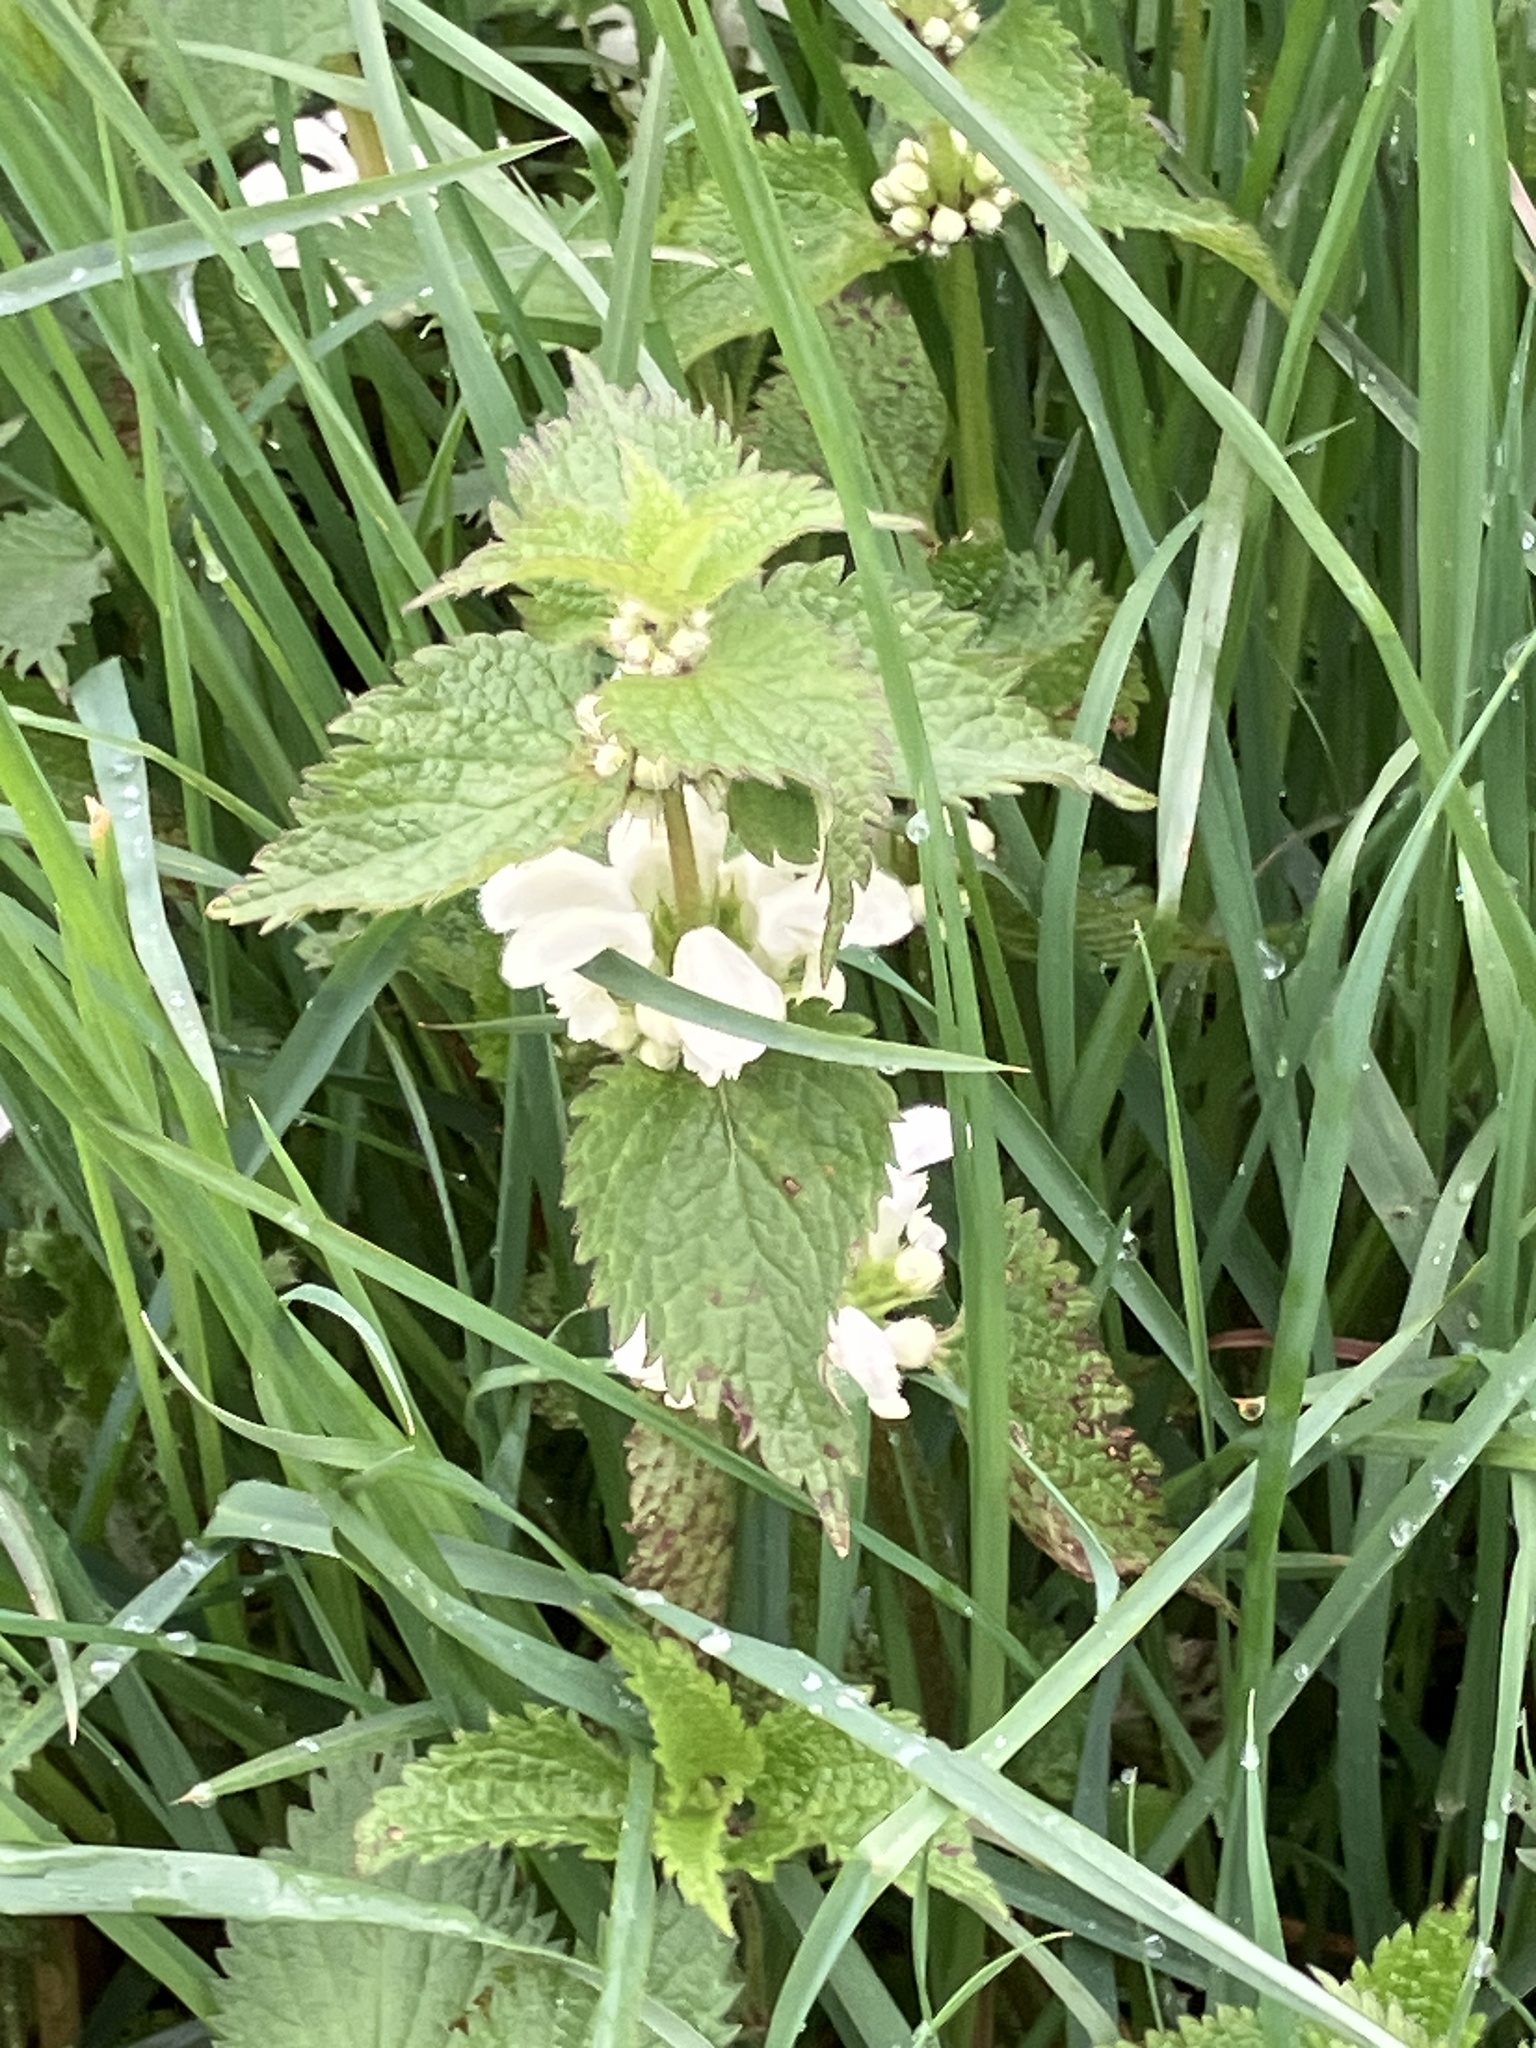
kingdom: Plantae
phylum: Tracheophyta
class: Magnoliopsida
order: Lamiales
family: Lamiaceae
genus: Lamium
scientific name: Lamium album
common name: White dead-nettle
